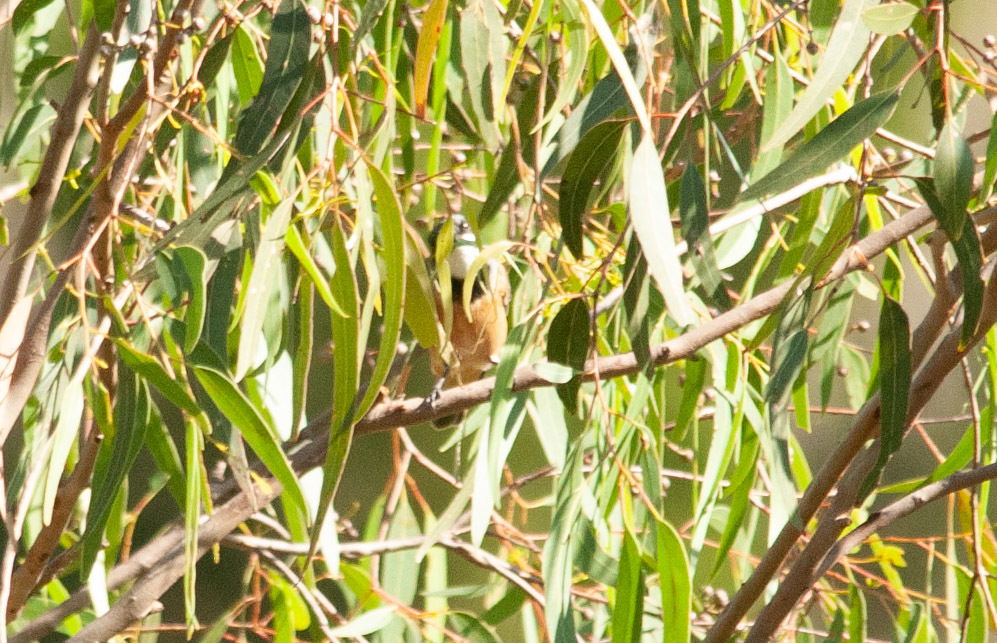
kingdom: Animalia
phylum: Chordata
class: Aves
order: Passeriformes
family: Pachycephalidae
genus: Pachycephala
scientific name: Pachycephala rufiventris
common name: Rufous whistler
